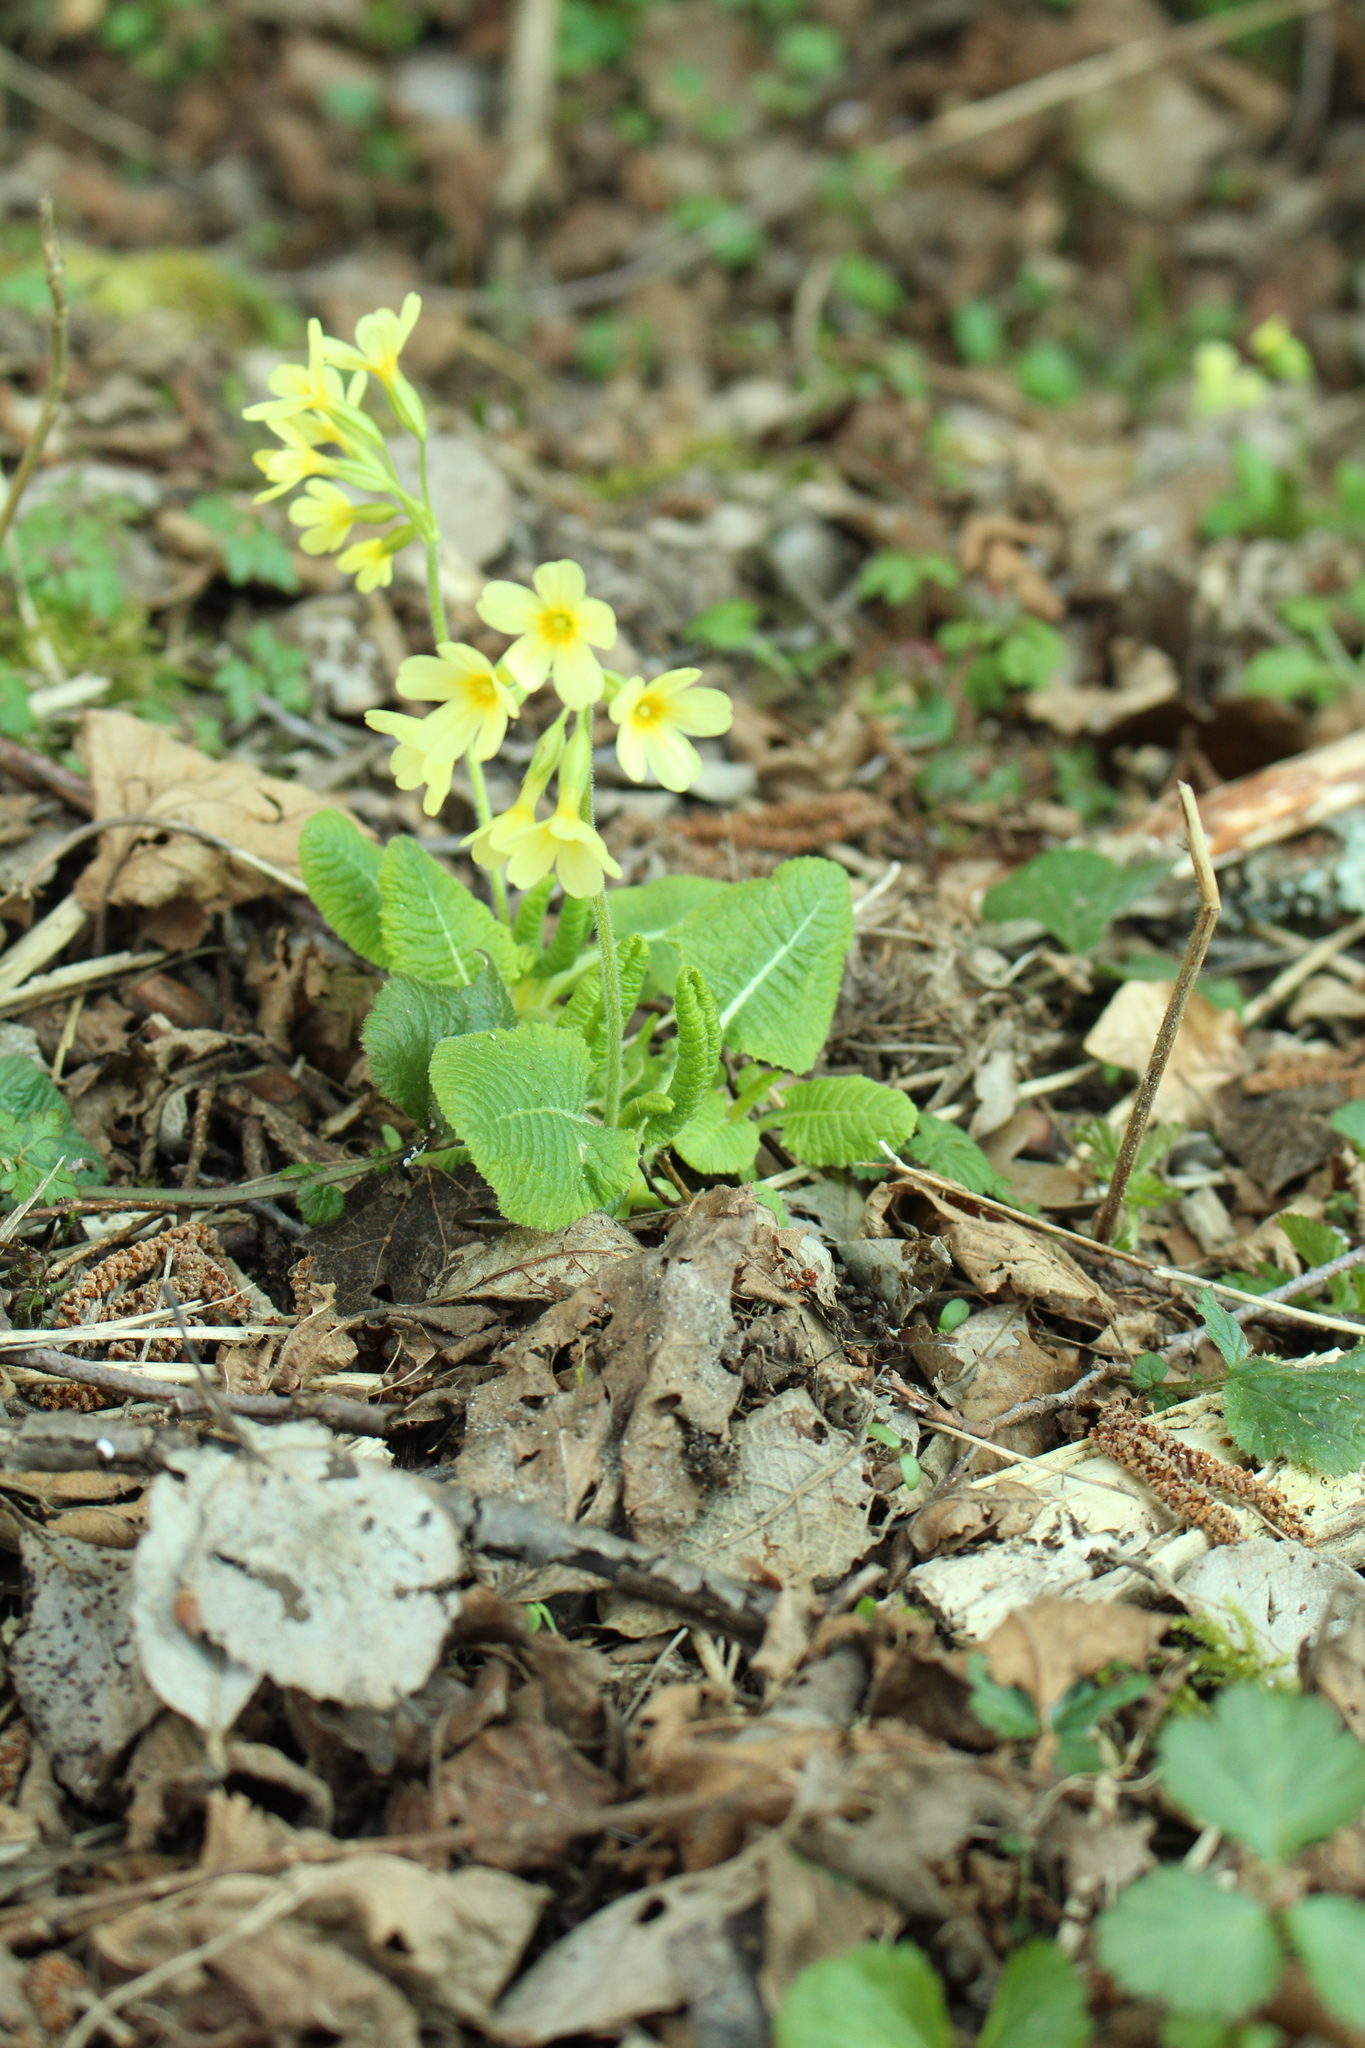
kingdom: Plantae
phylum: Tracheophyta
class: Magnoliopsida
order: Ericales
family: Primulaceae
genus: Primula
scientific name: Primula elatior
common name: Oxlip
